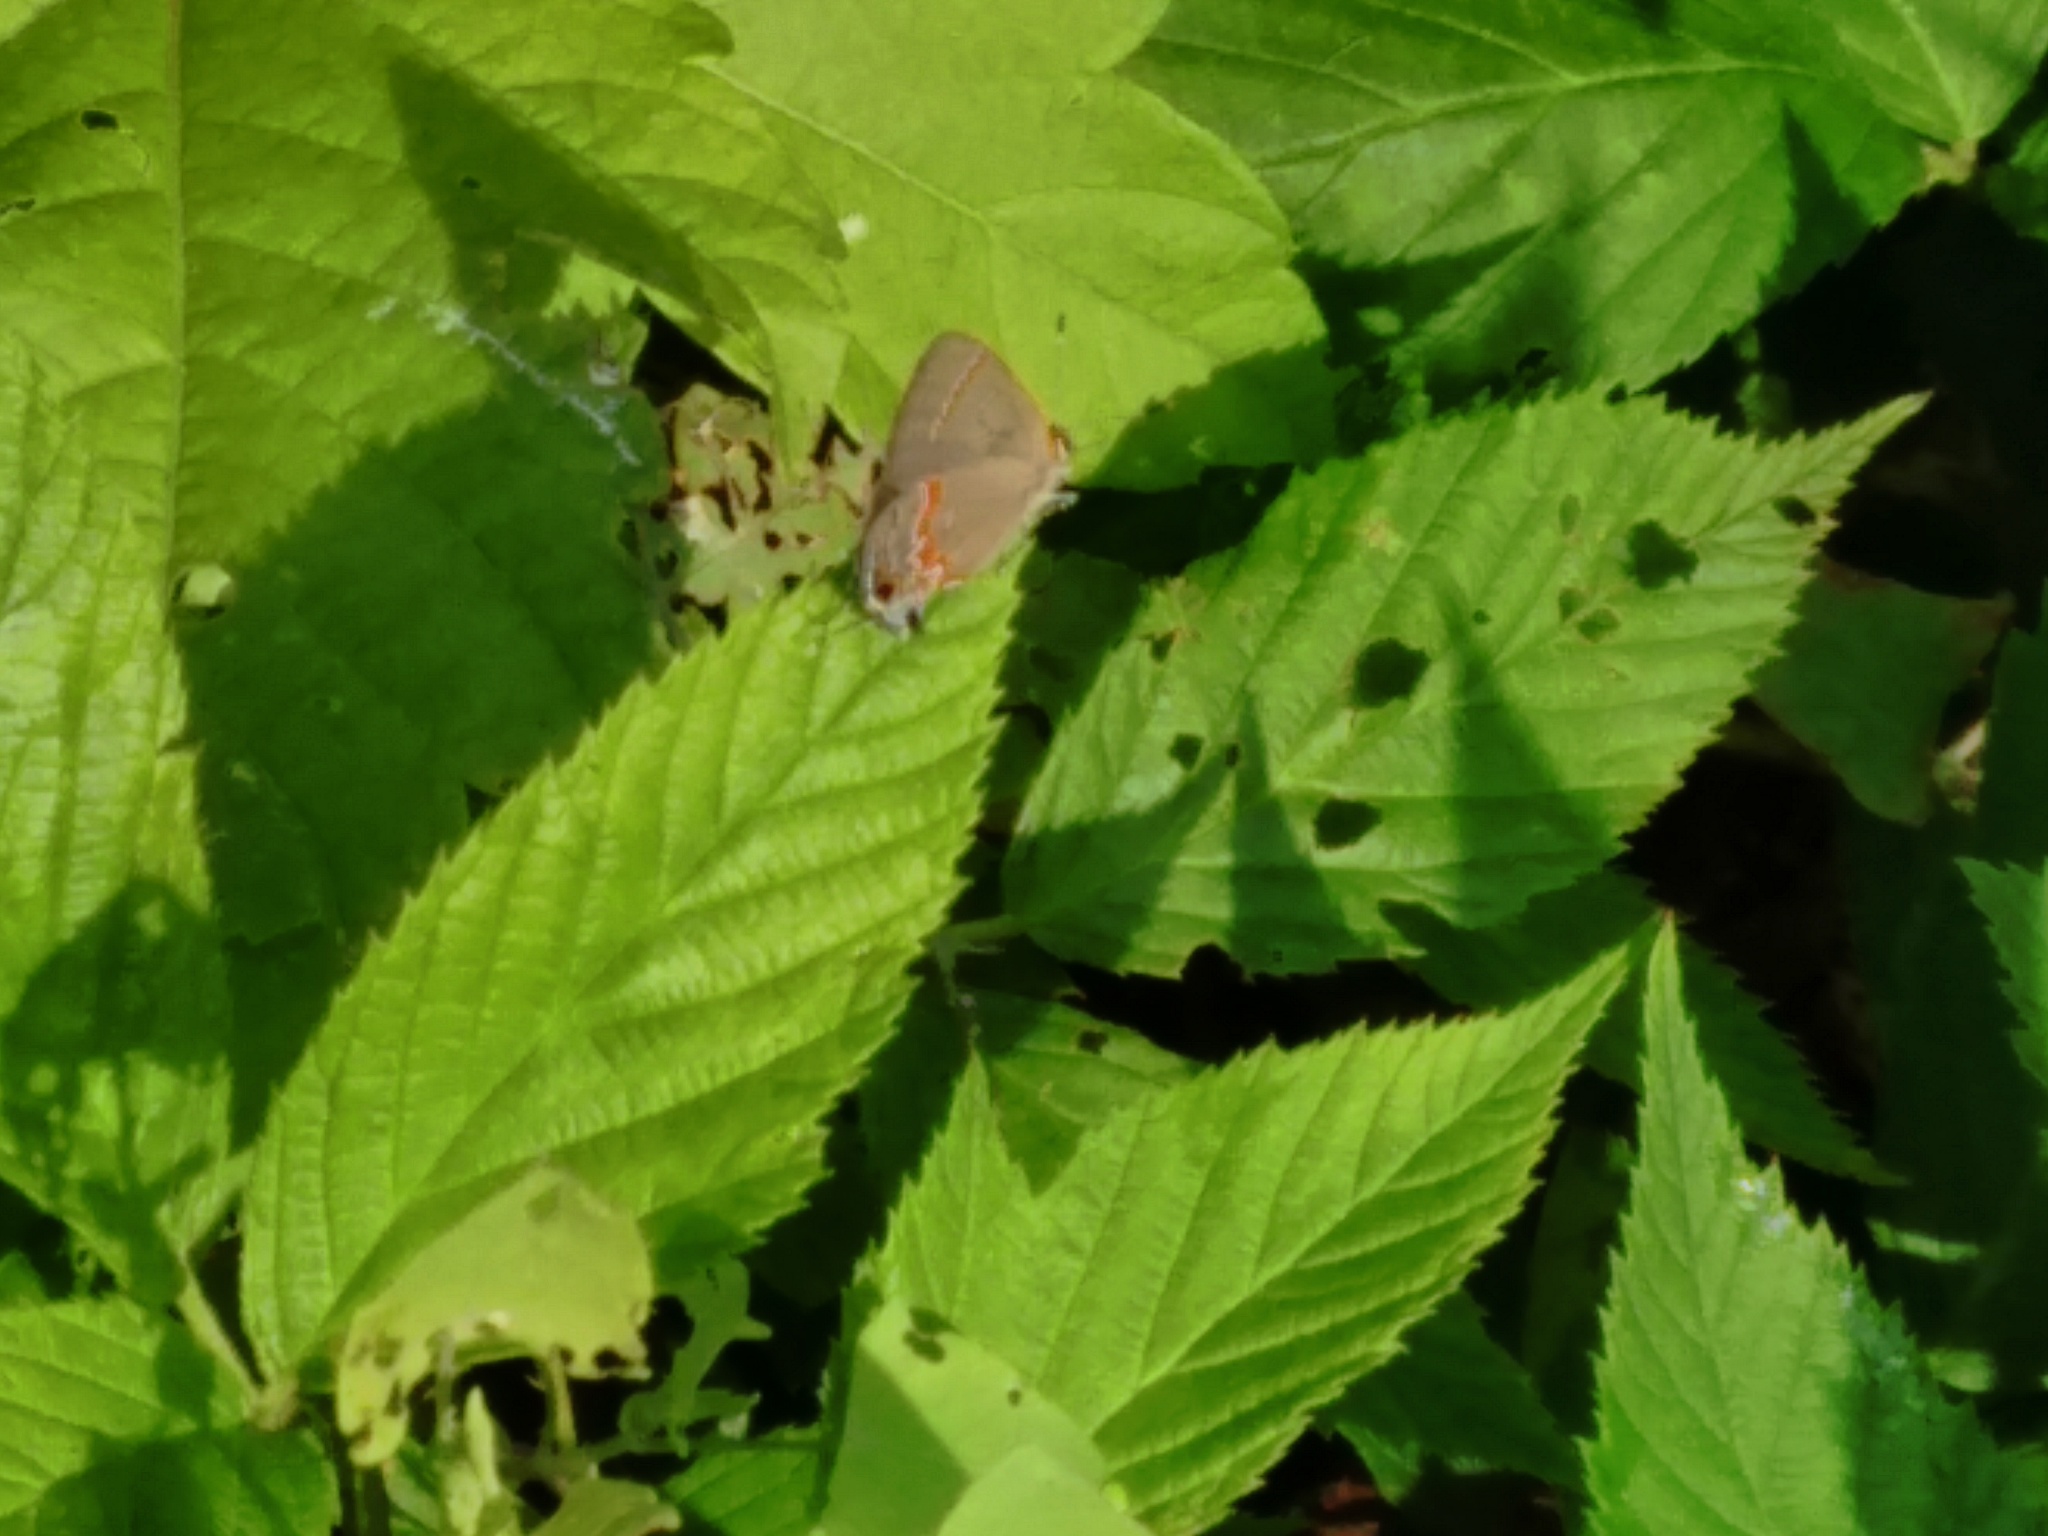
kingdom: Animalia
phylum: Arthropoda
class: Insecta
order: Lepidoptera
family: Lycaenidae
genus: Calycopis
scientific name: Calycopis cecrops
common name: Red-banded hairstreak
